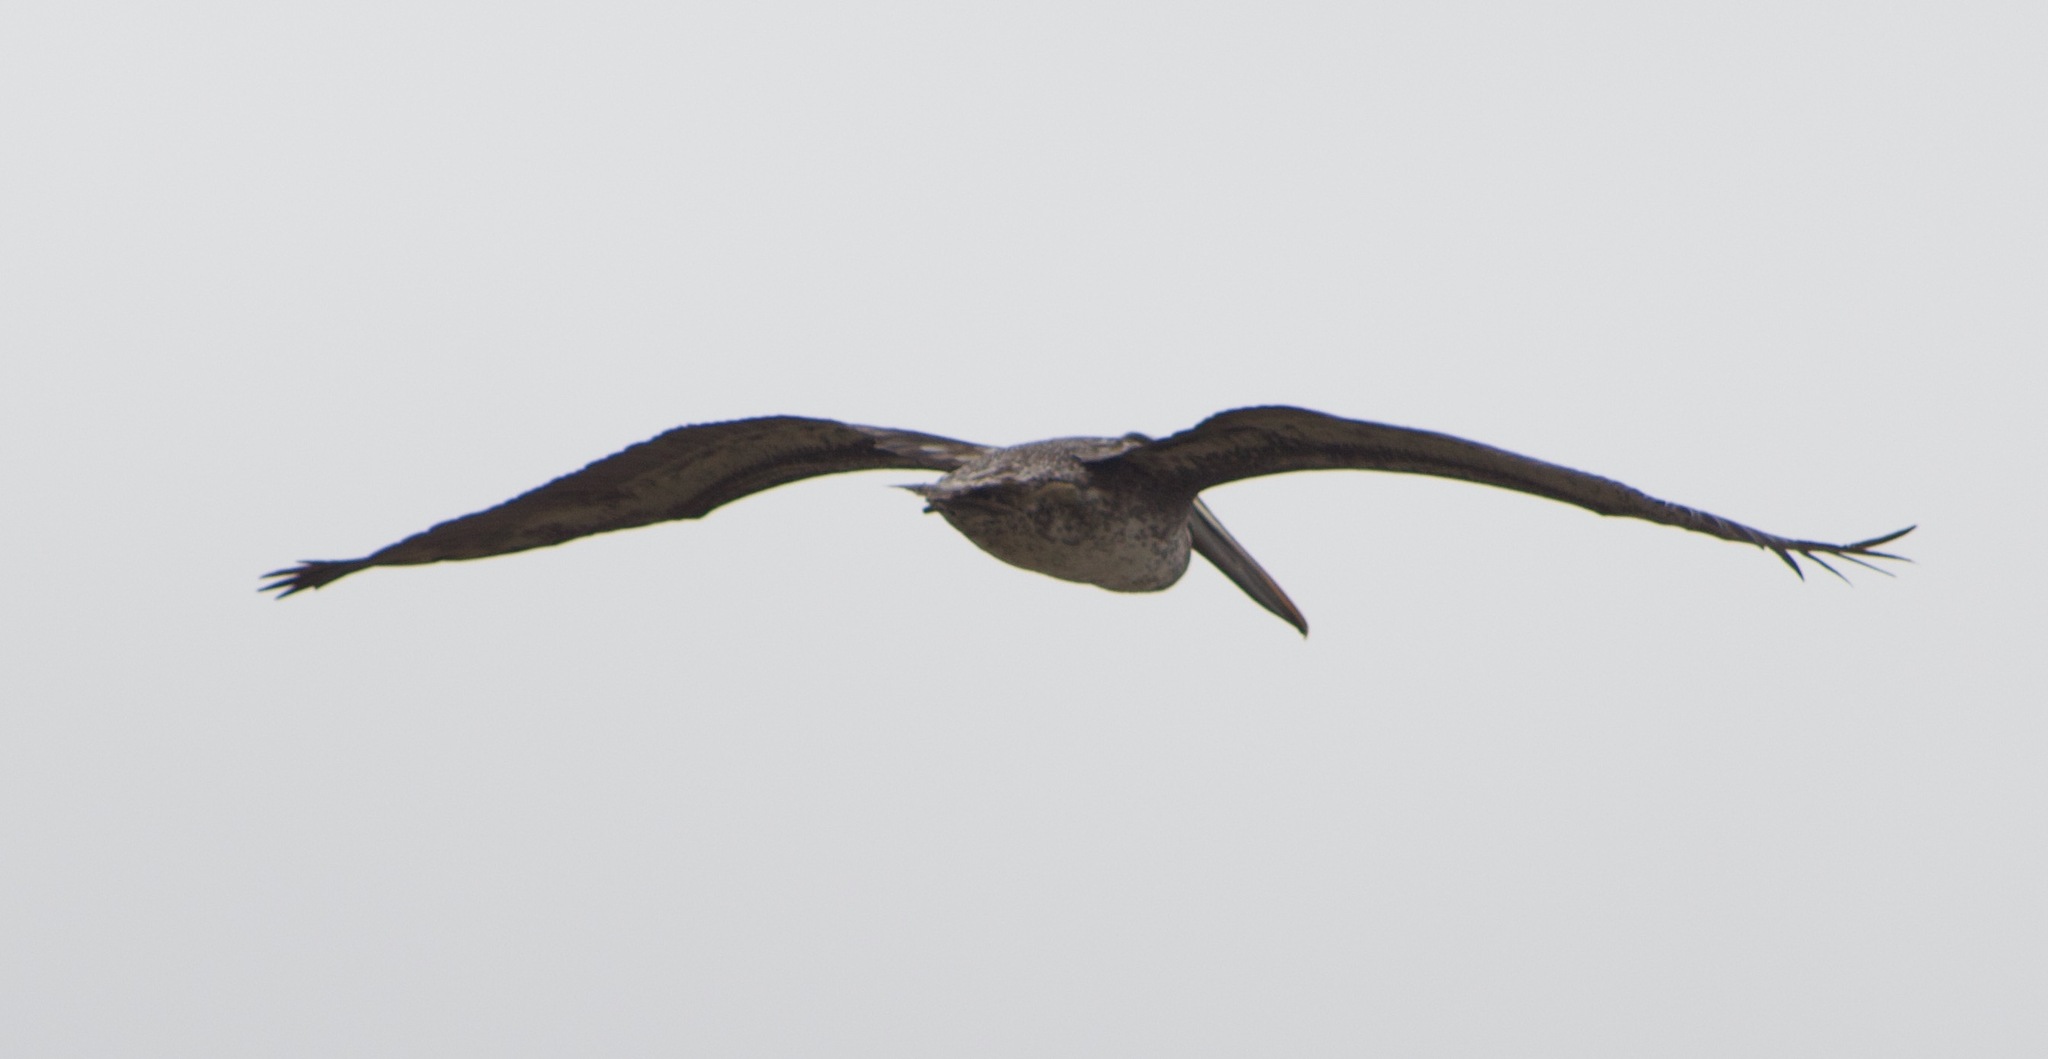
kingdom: Animalia
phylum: Chordata
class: Aves
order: Pelecaniformes
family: Pelecanidae
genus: Pelecanus
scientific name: Pelecanus thagus
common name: Peruvian pelican
